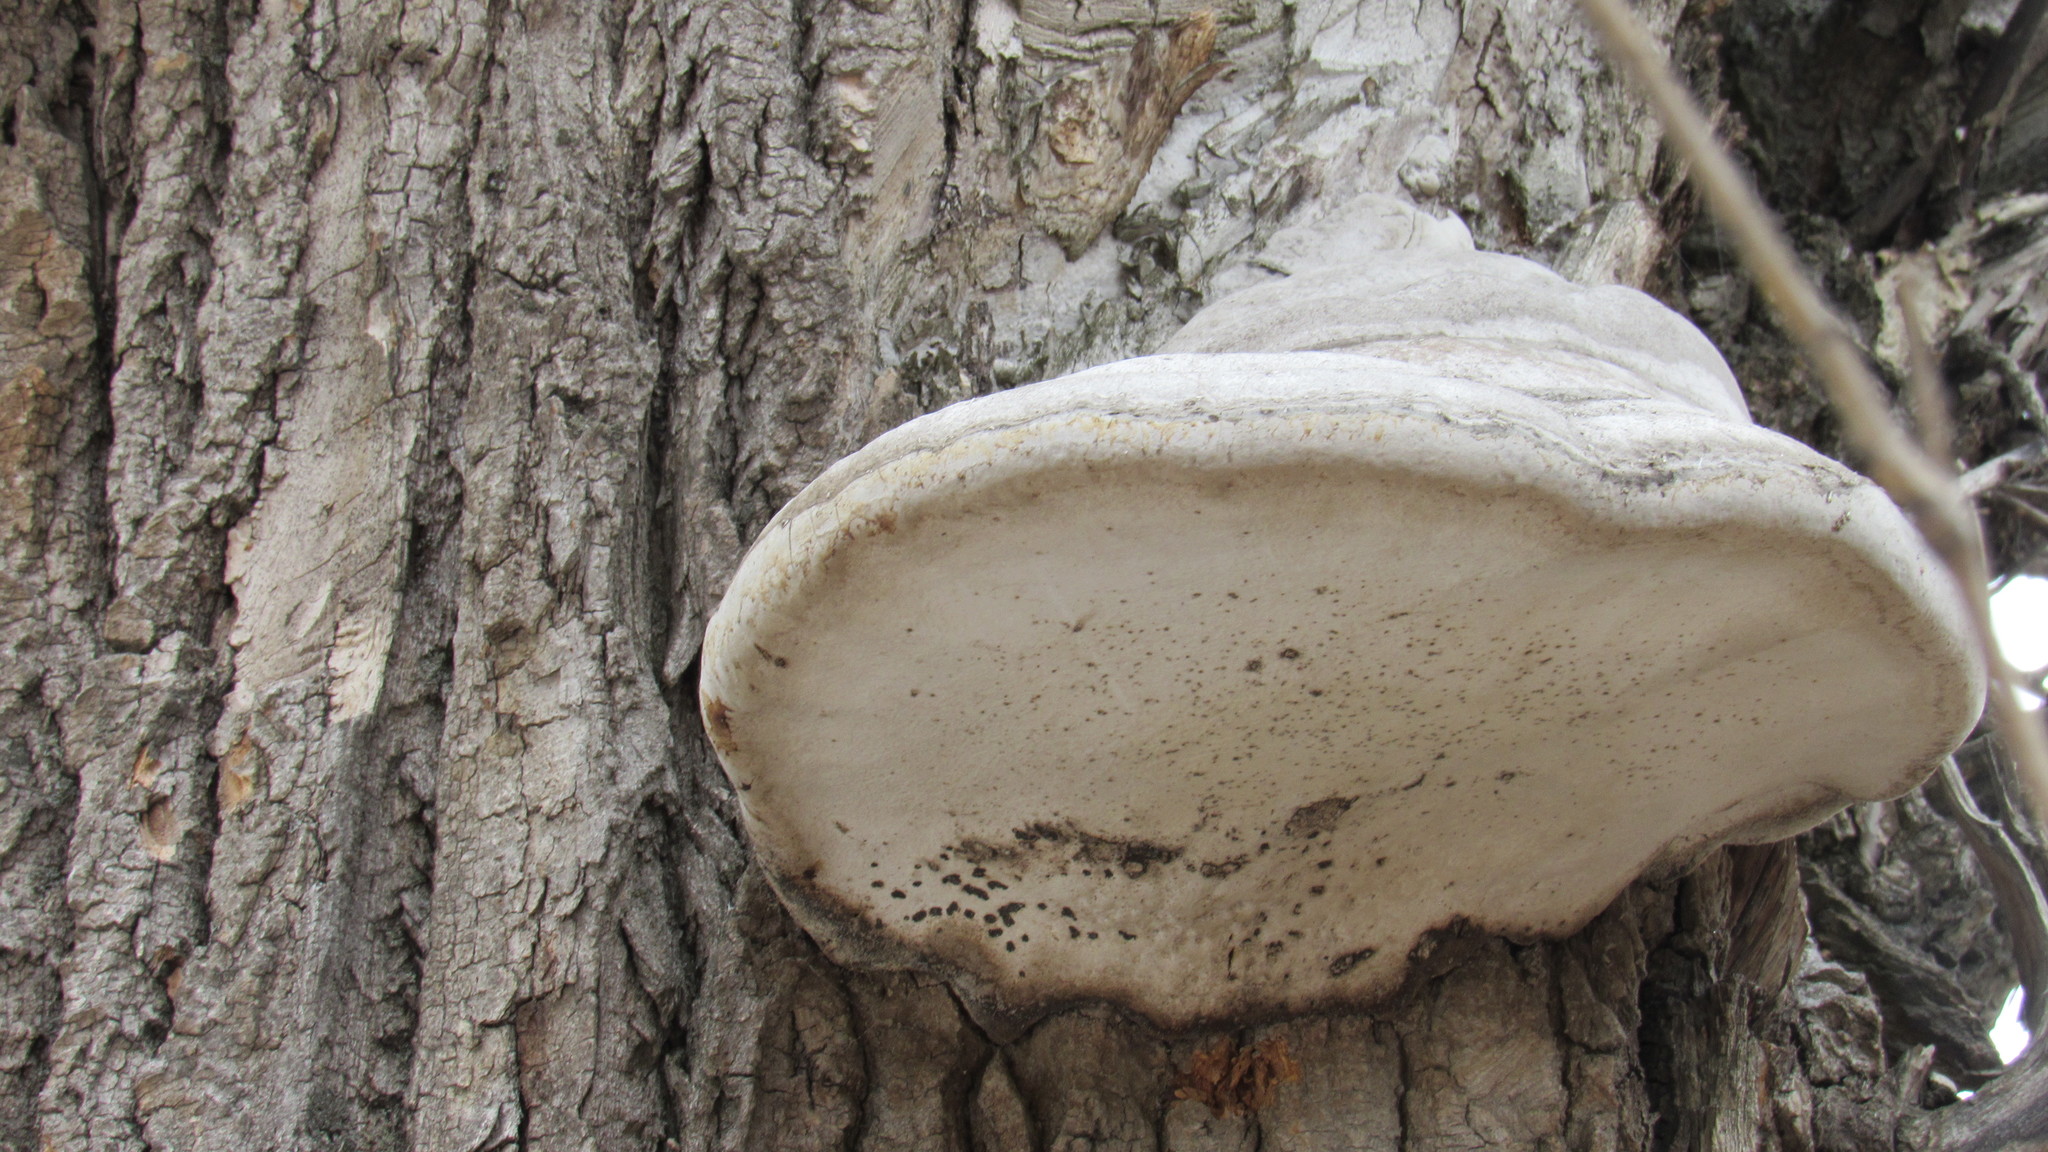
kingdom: Fungi
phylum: Basidiomycota
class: Agaricomycetes
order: Polyporales
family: Polyporaceae
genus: Fomes
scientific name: Fomes fomentarius
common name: Hoof fungus
